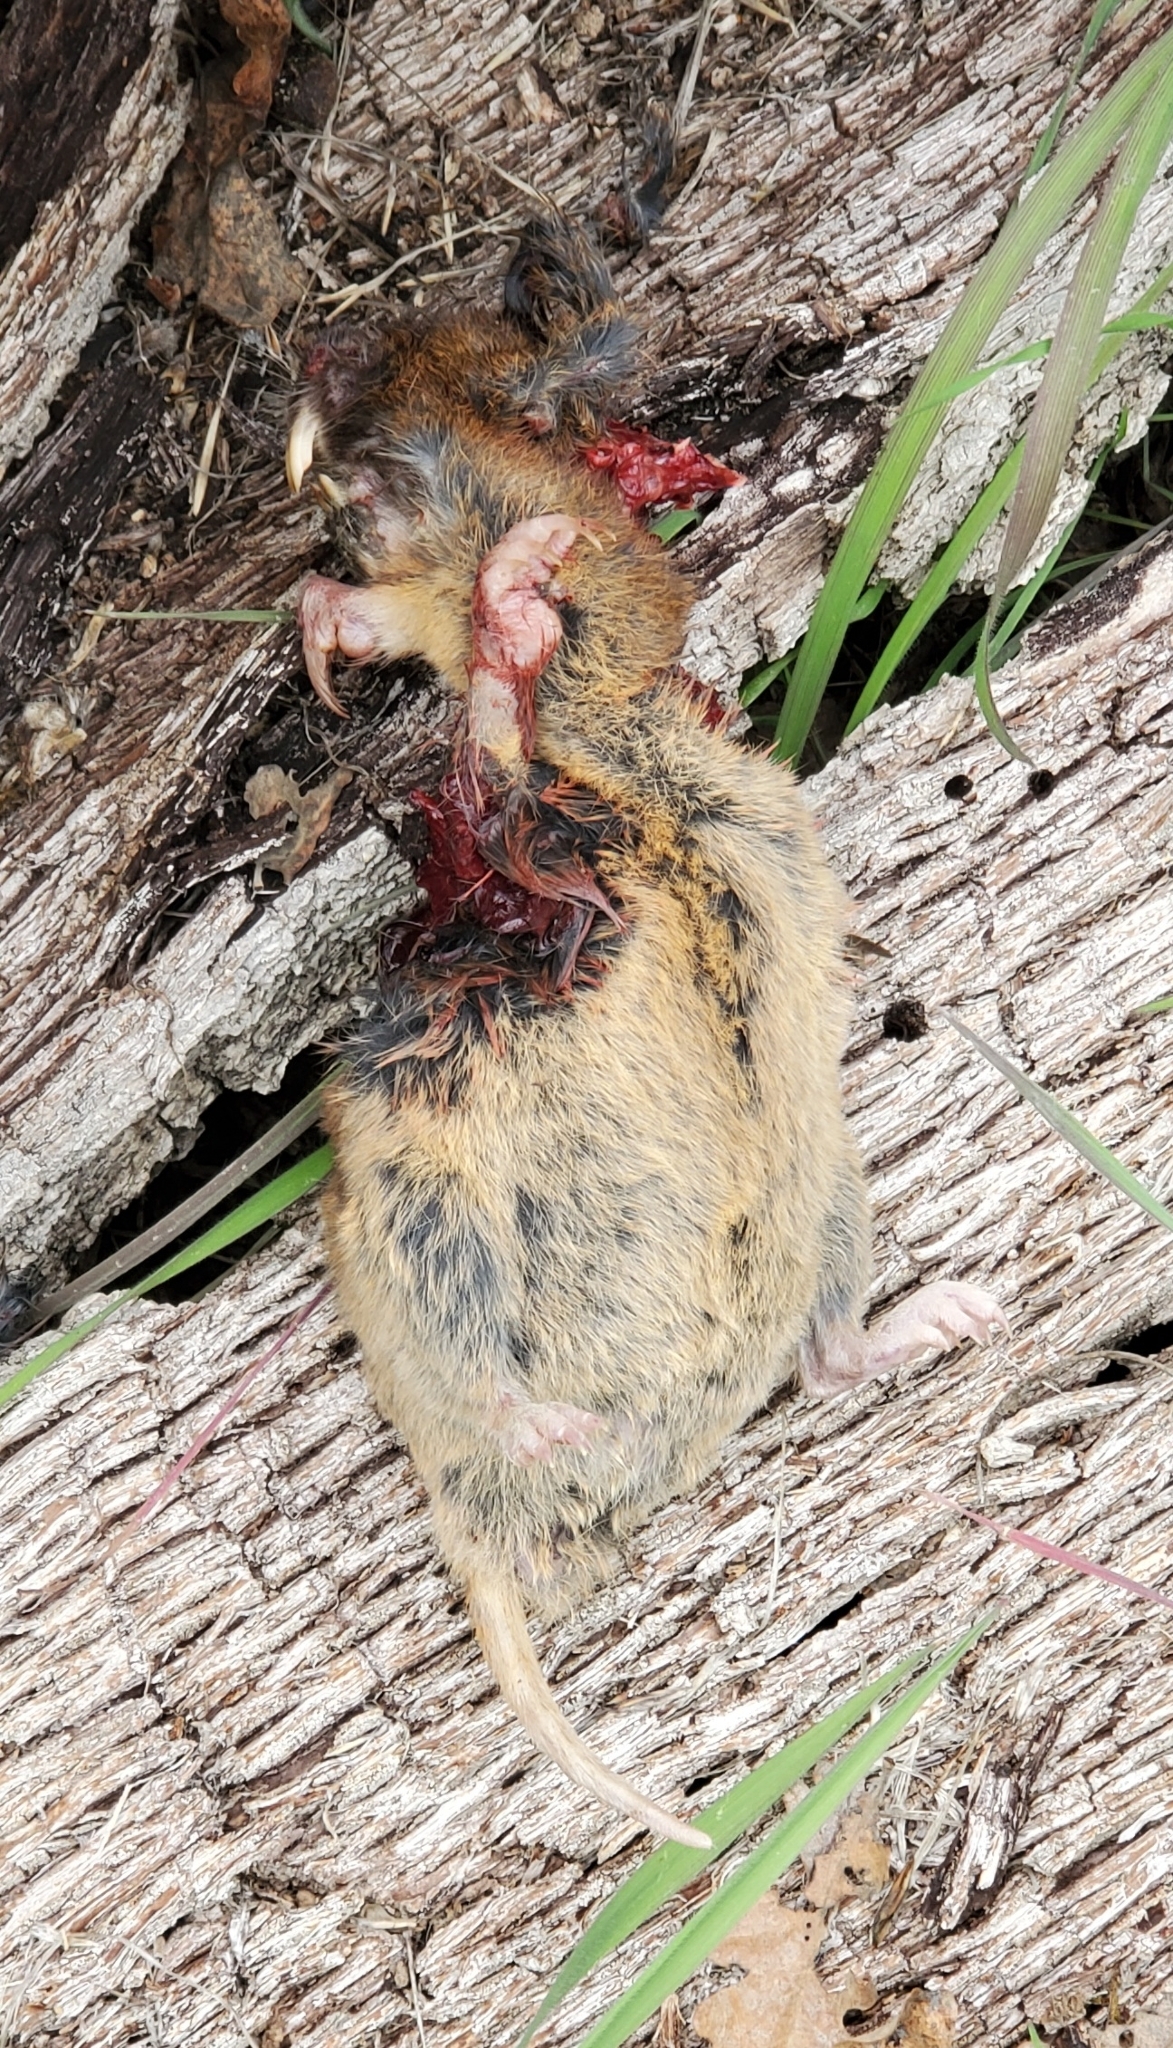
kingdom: Animalia
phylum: Chordata
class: Mammalia
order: Rodentia
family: Geomyidae
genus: Thomomys
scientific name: Thomomys bottae
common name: Botta's pocket gopher
